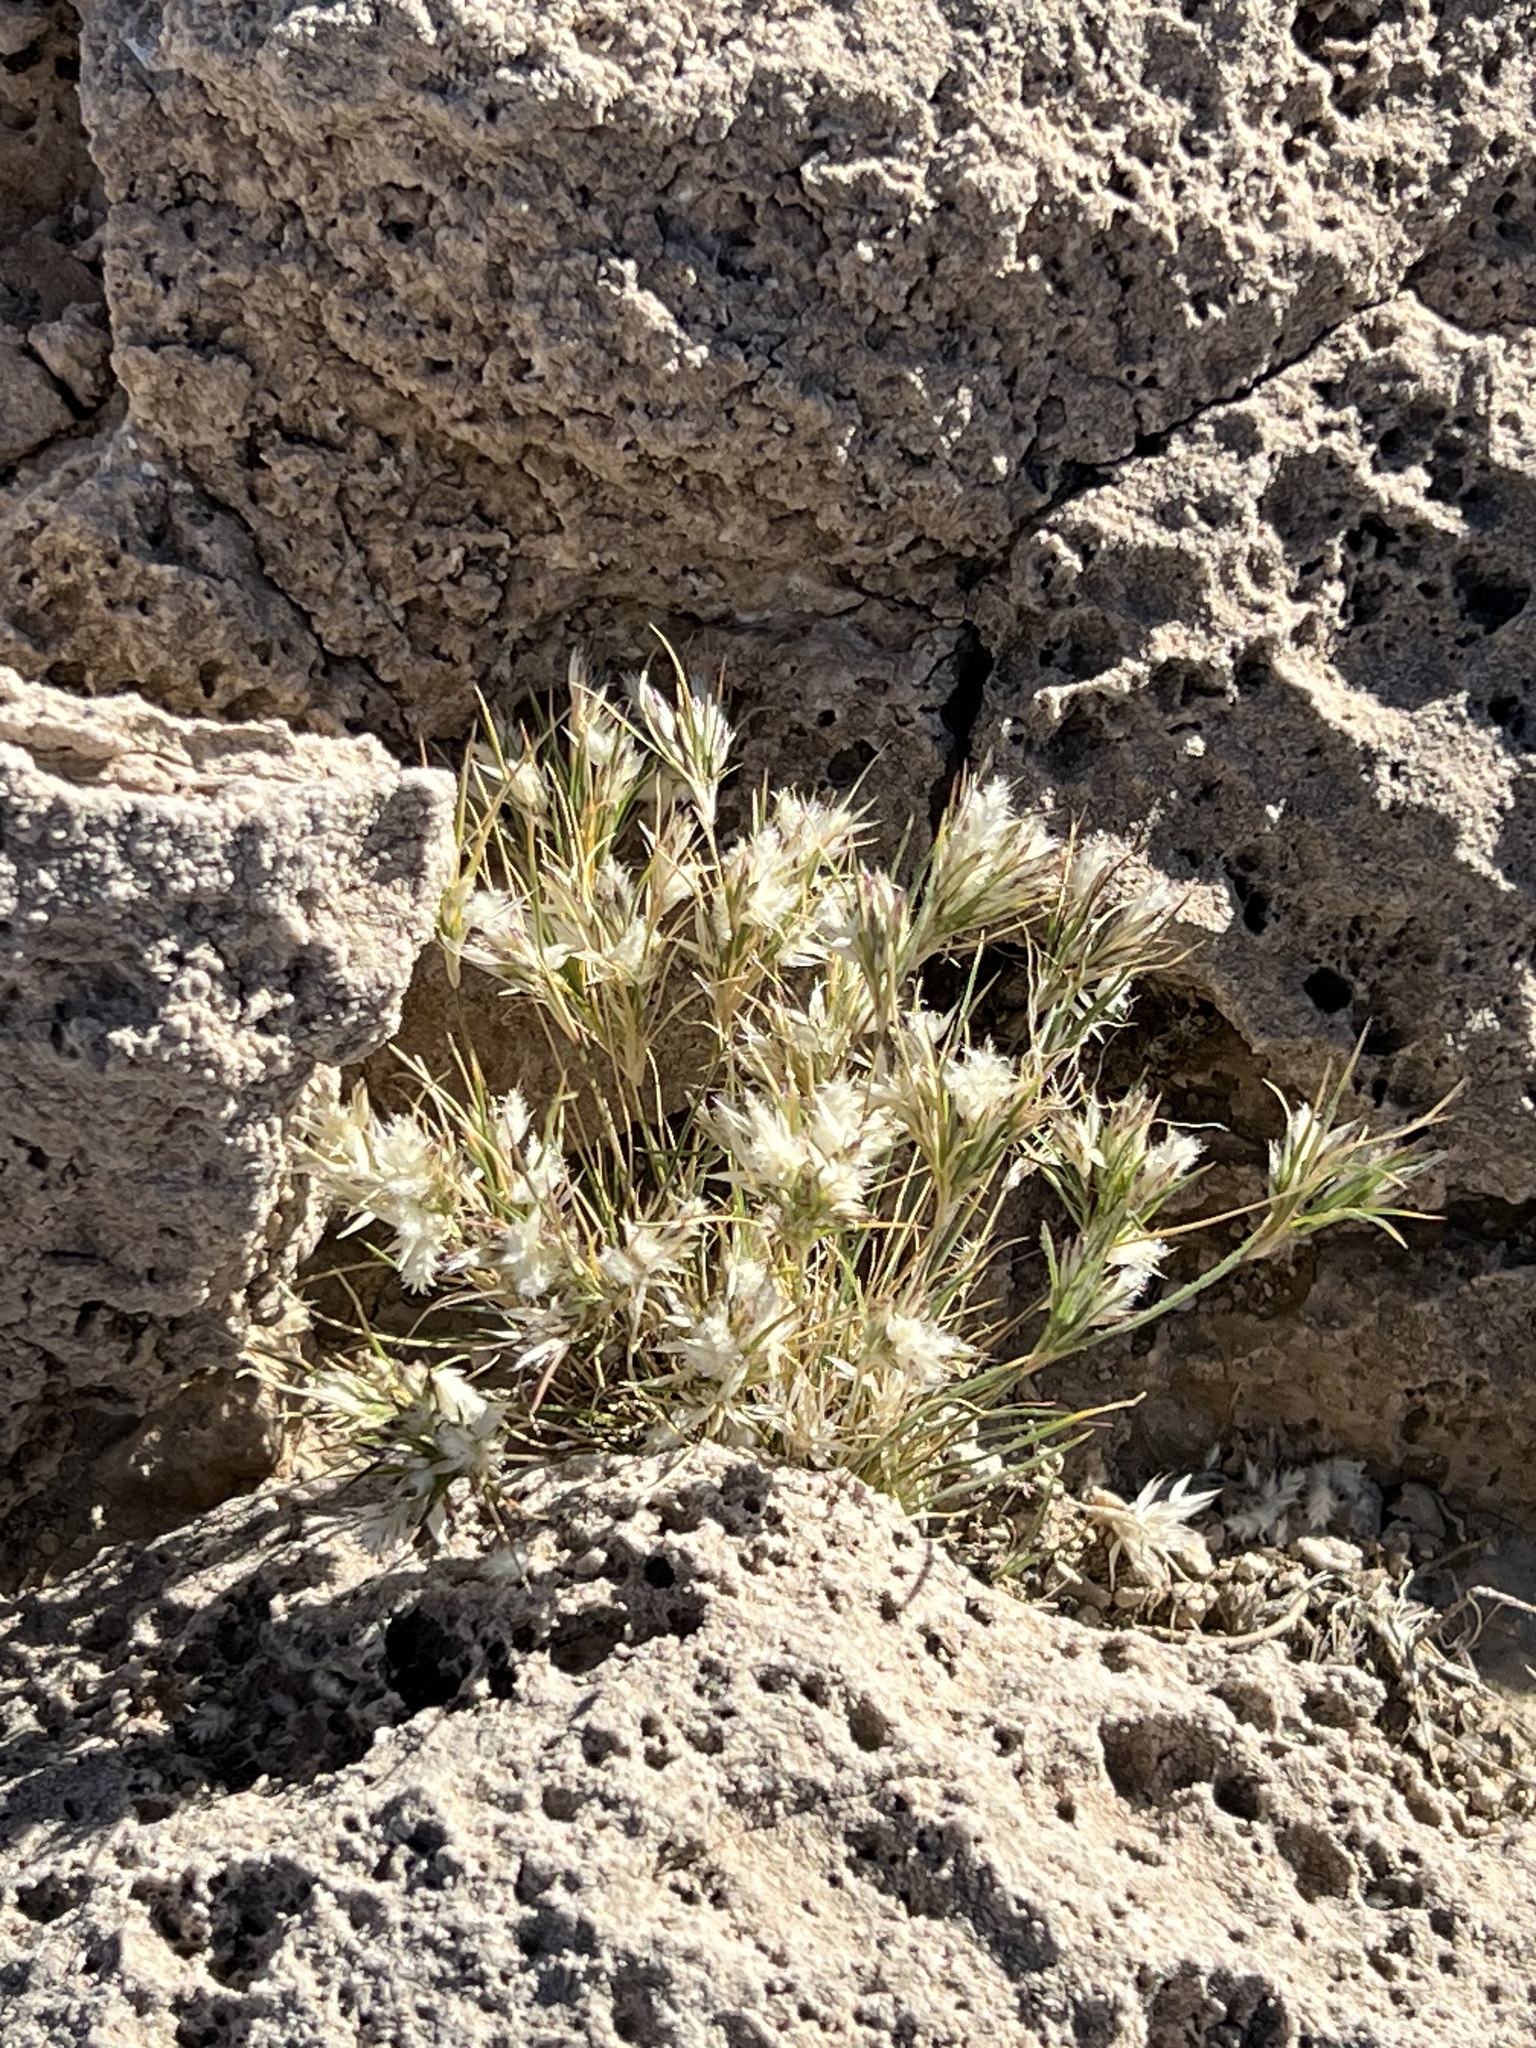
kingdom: Plantae
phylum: Tracheophyta
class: Liliopsida
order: Poales
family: Poaceae
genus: Dasyochloa
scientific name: Dasyochloa pulchella
